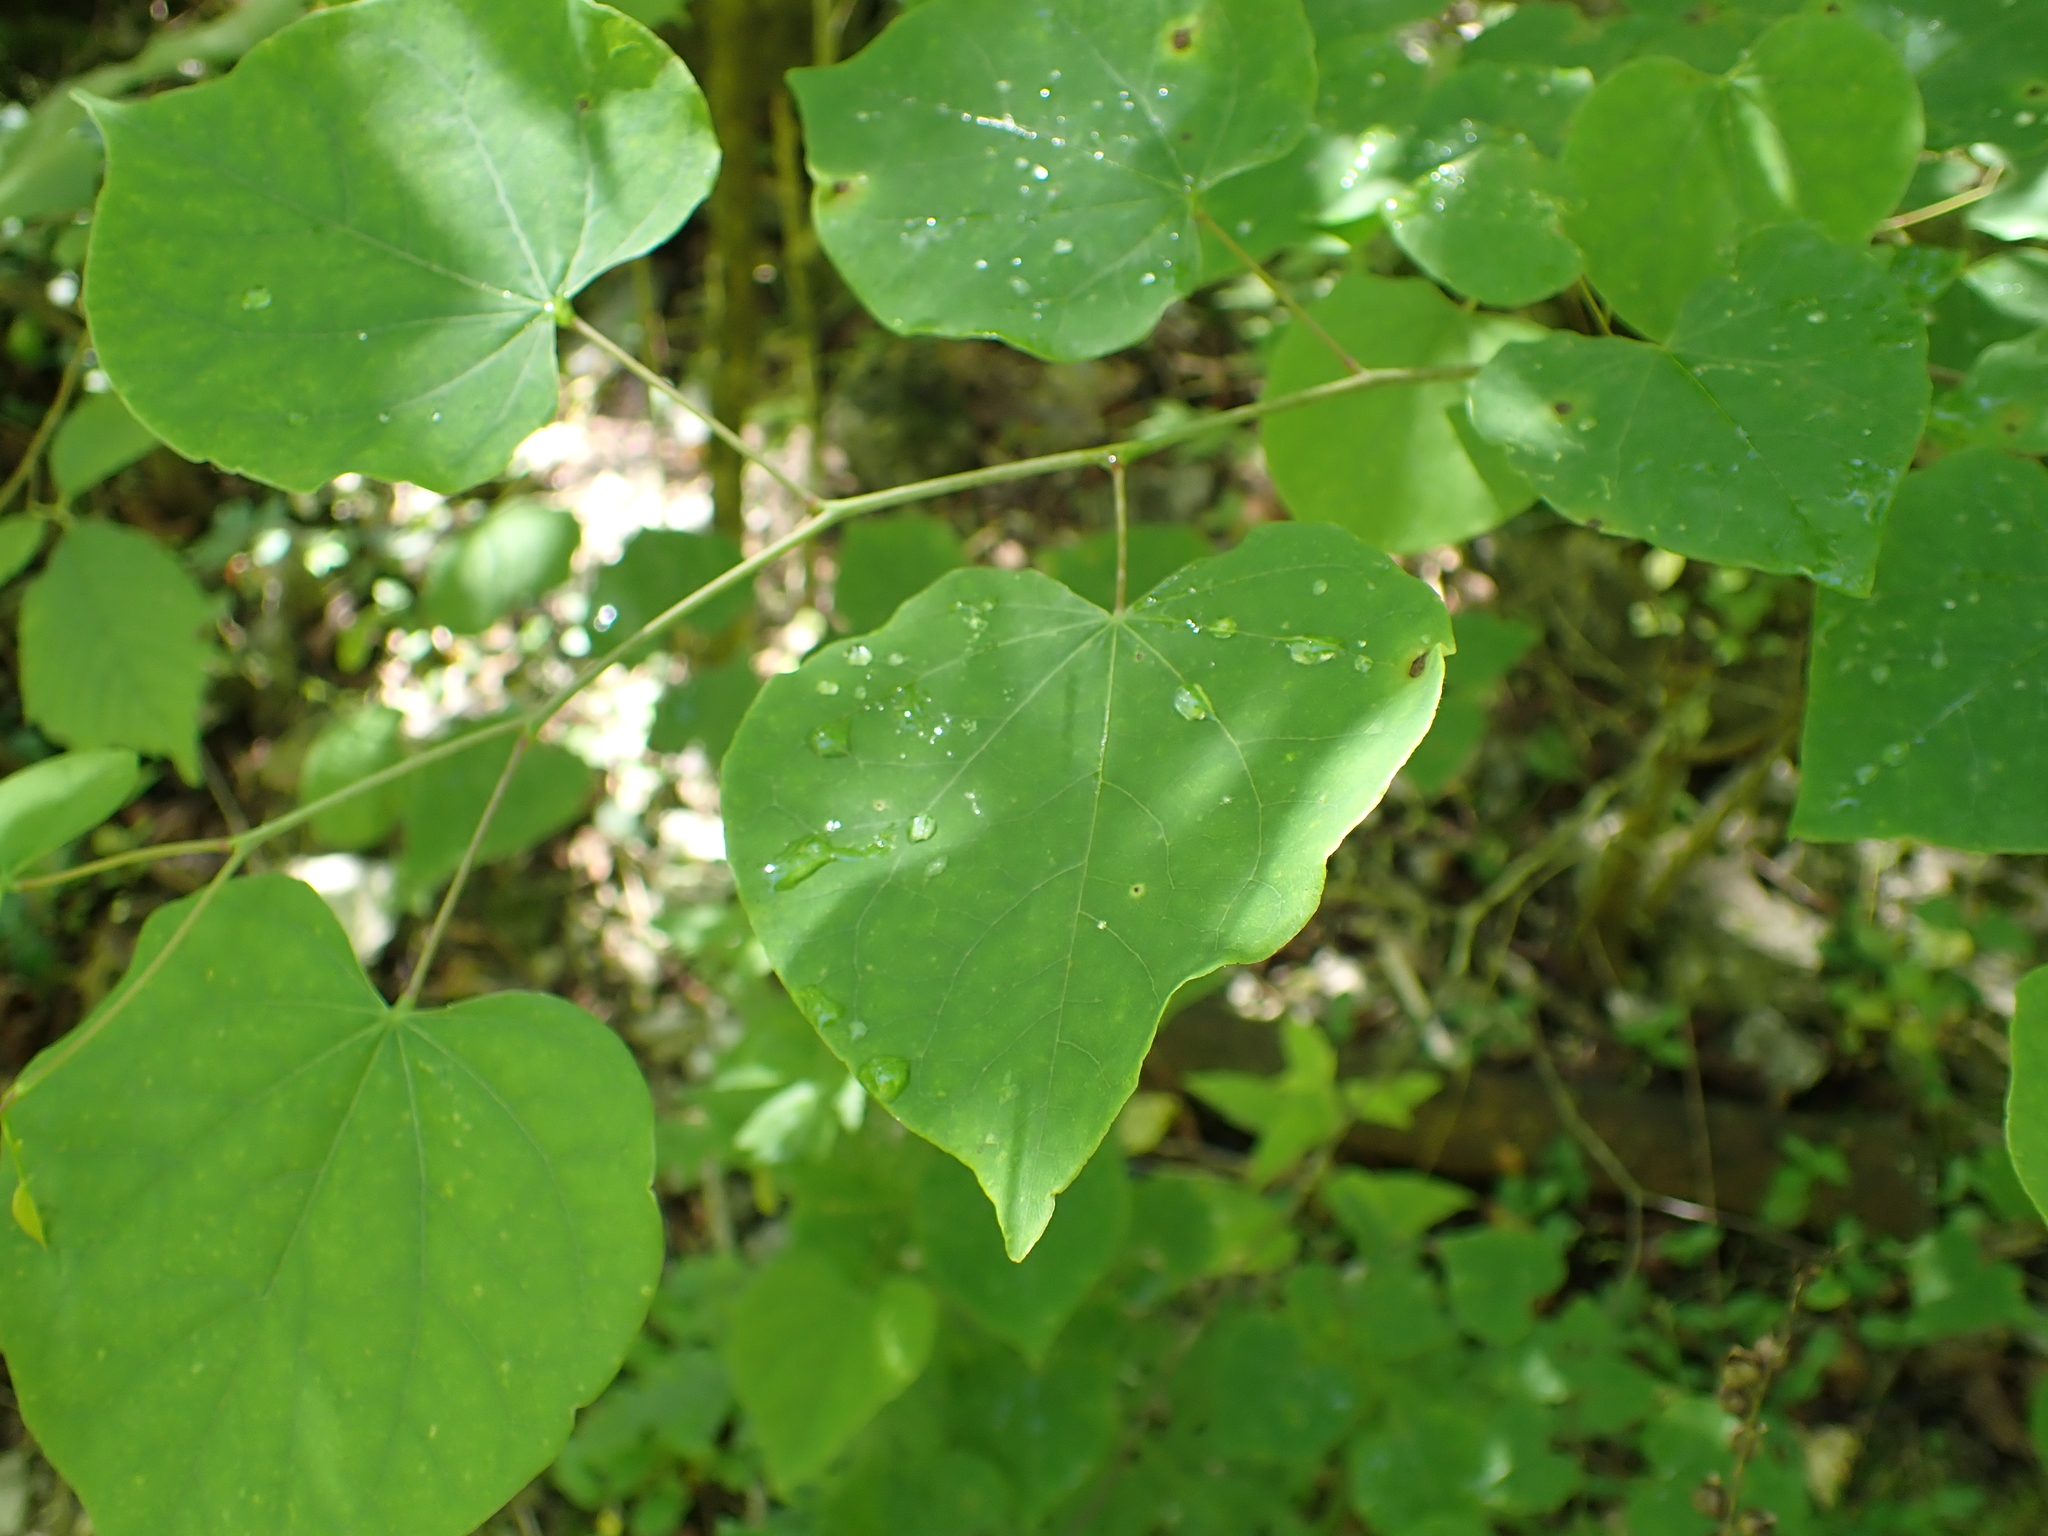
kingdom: Plantae
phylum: Tracheophyta
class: Magnoliopsida
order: Fabales
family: Fabaceae
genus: Cercis
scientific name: Cercis canadensis
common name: Eastern redbud
